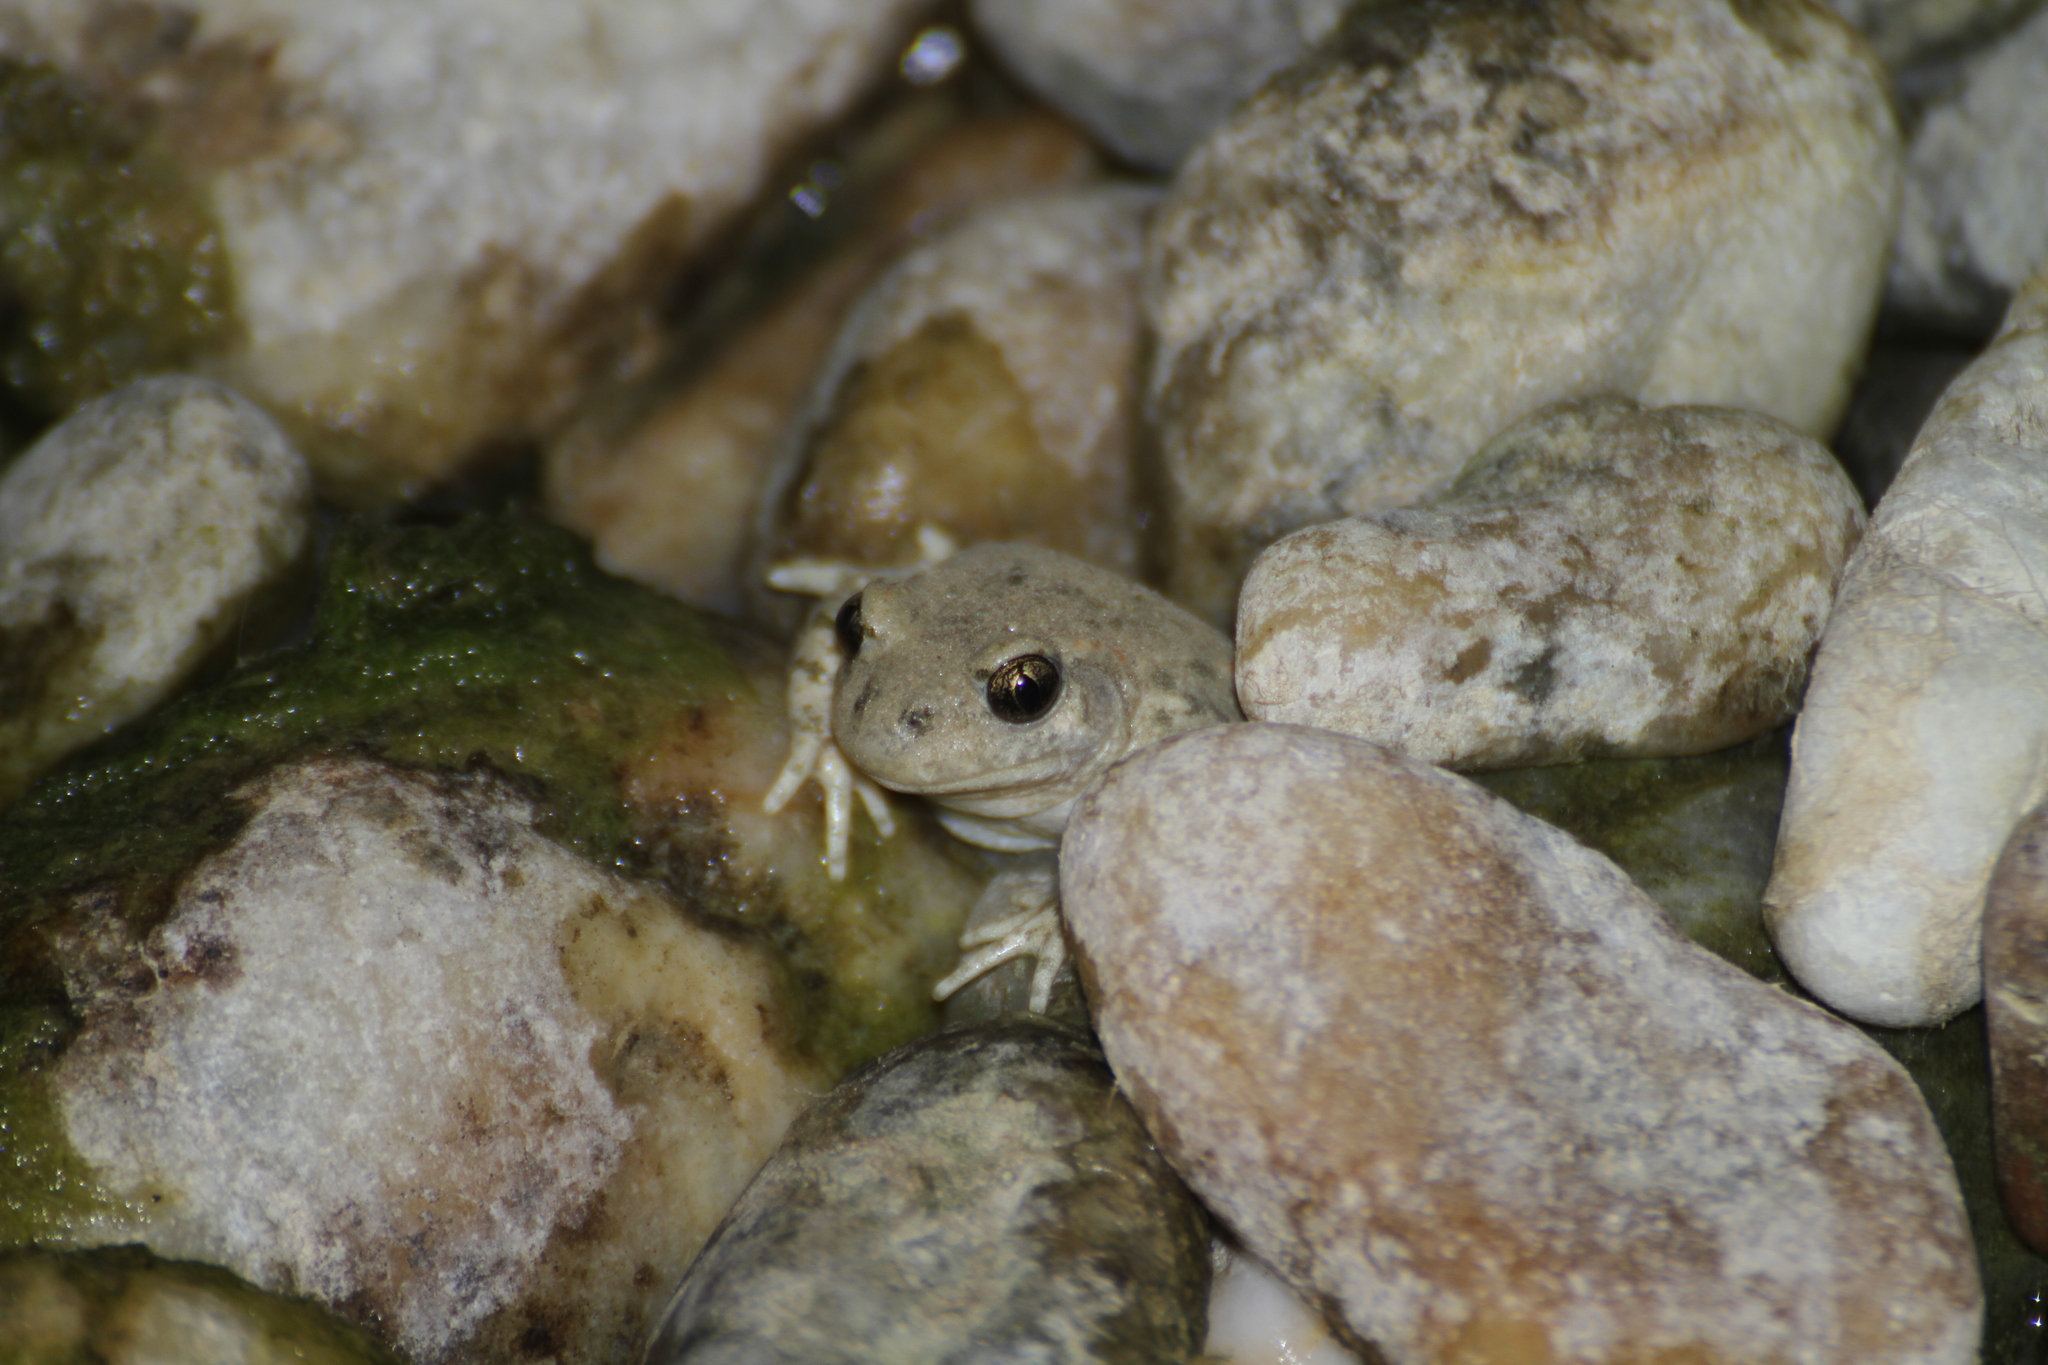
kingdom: Animalia
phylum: Chordata
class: Amphibia
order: Anura
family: Alytidae
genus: Alytes
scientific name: Alytes obstetricans
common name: Midwife toad
